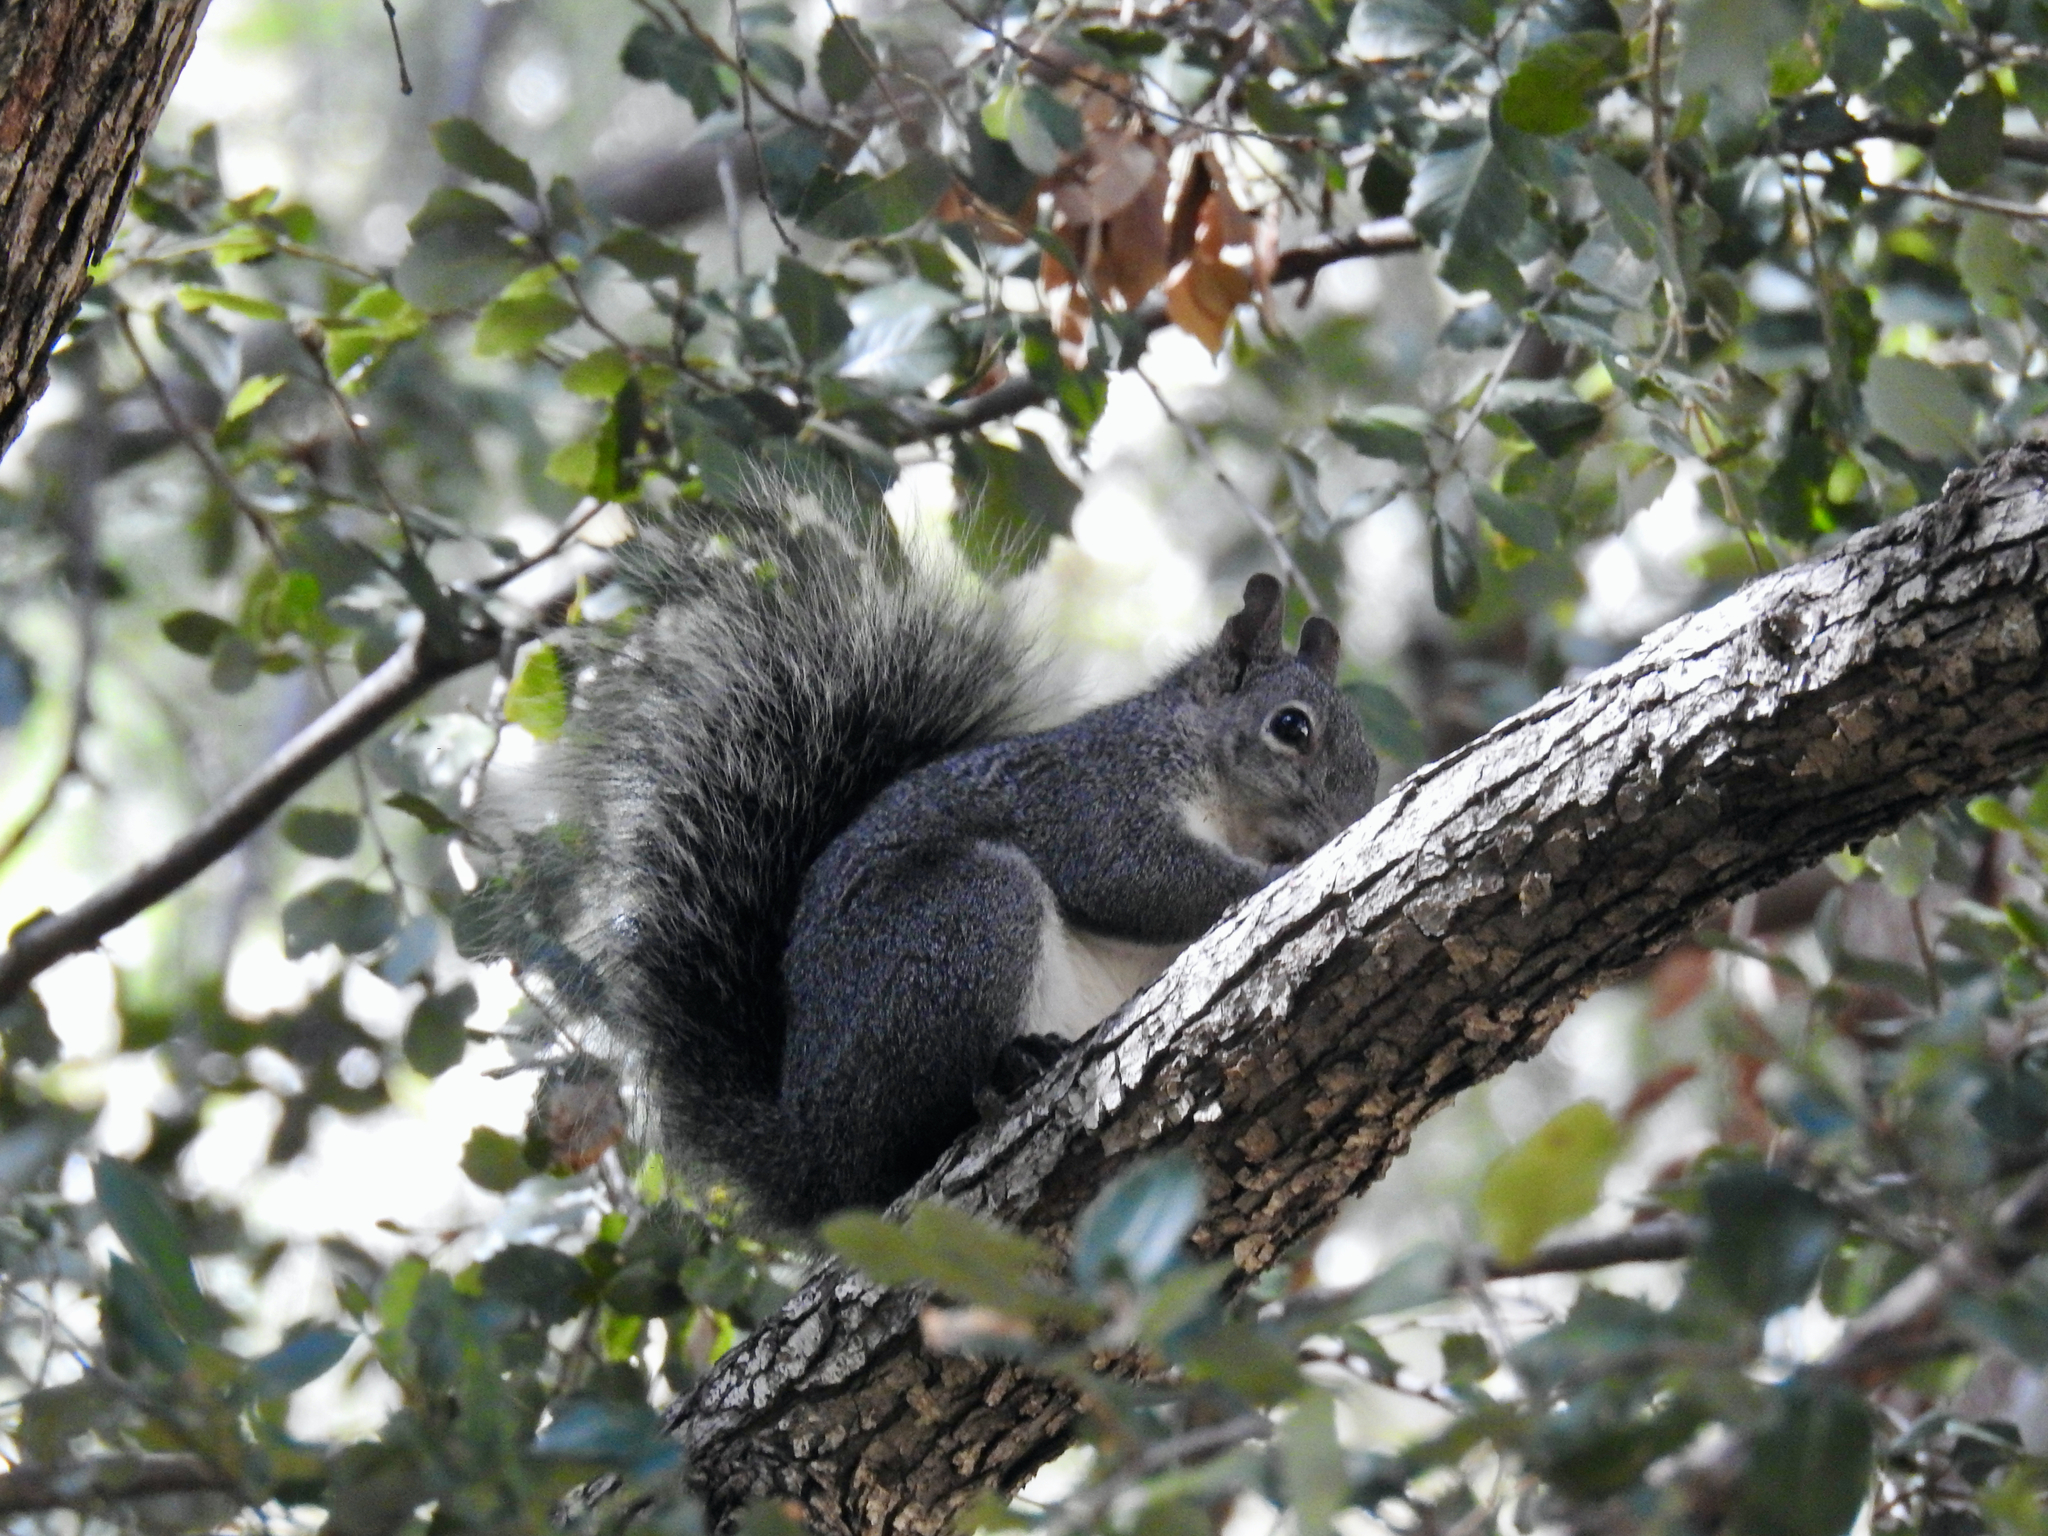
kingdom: Animalia
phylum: Chordata
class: Mammalia
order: Rodentia
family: Sciuridae
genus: Sciurus
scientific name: Sciurus griseus
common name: Western gray squirrel
